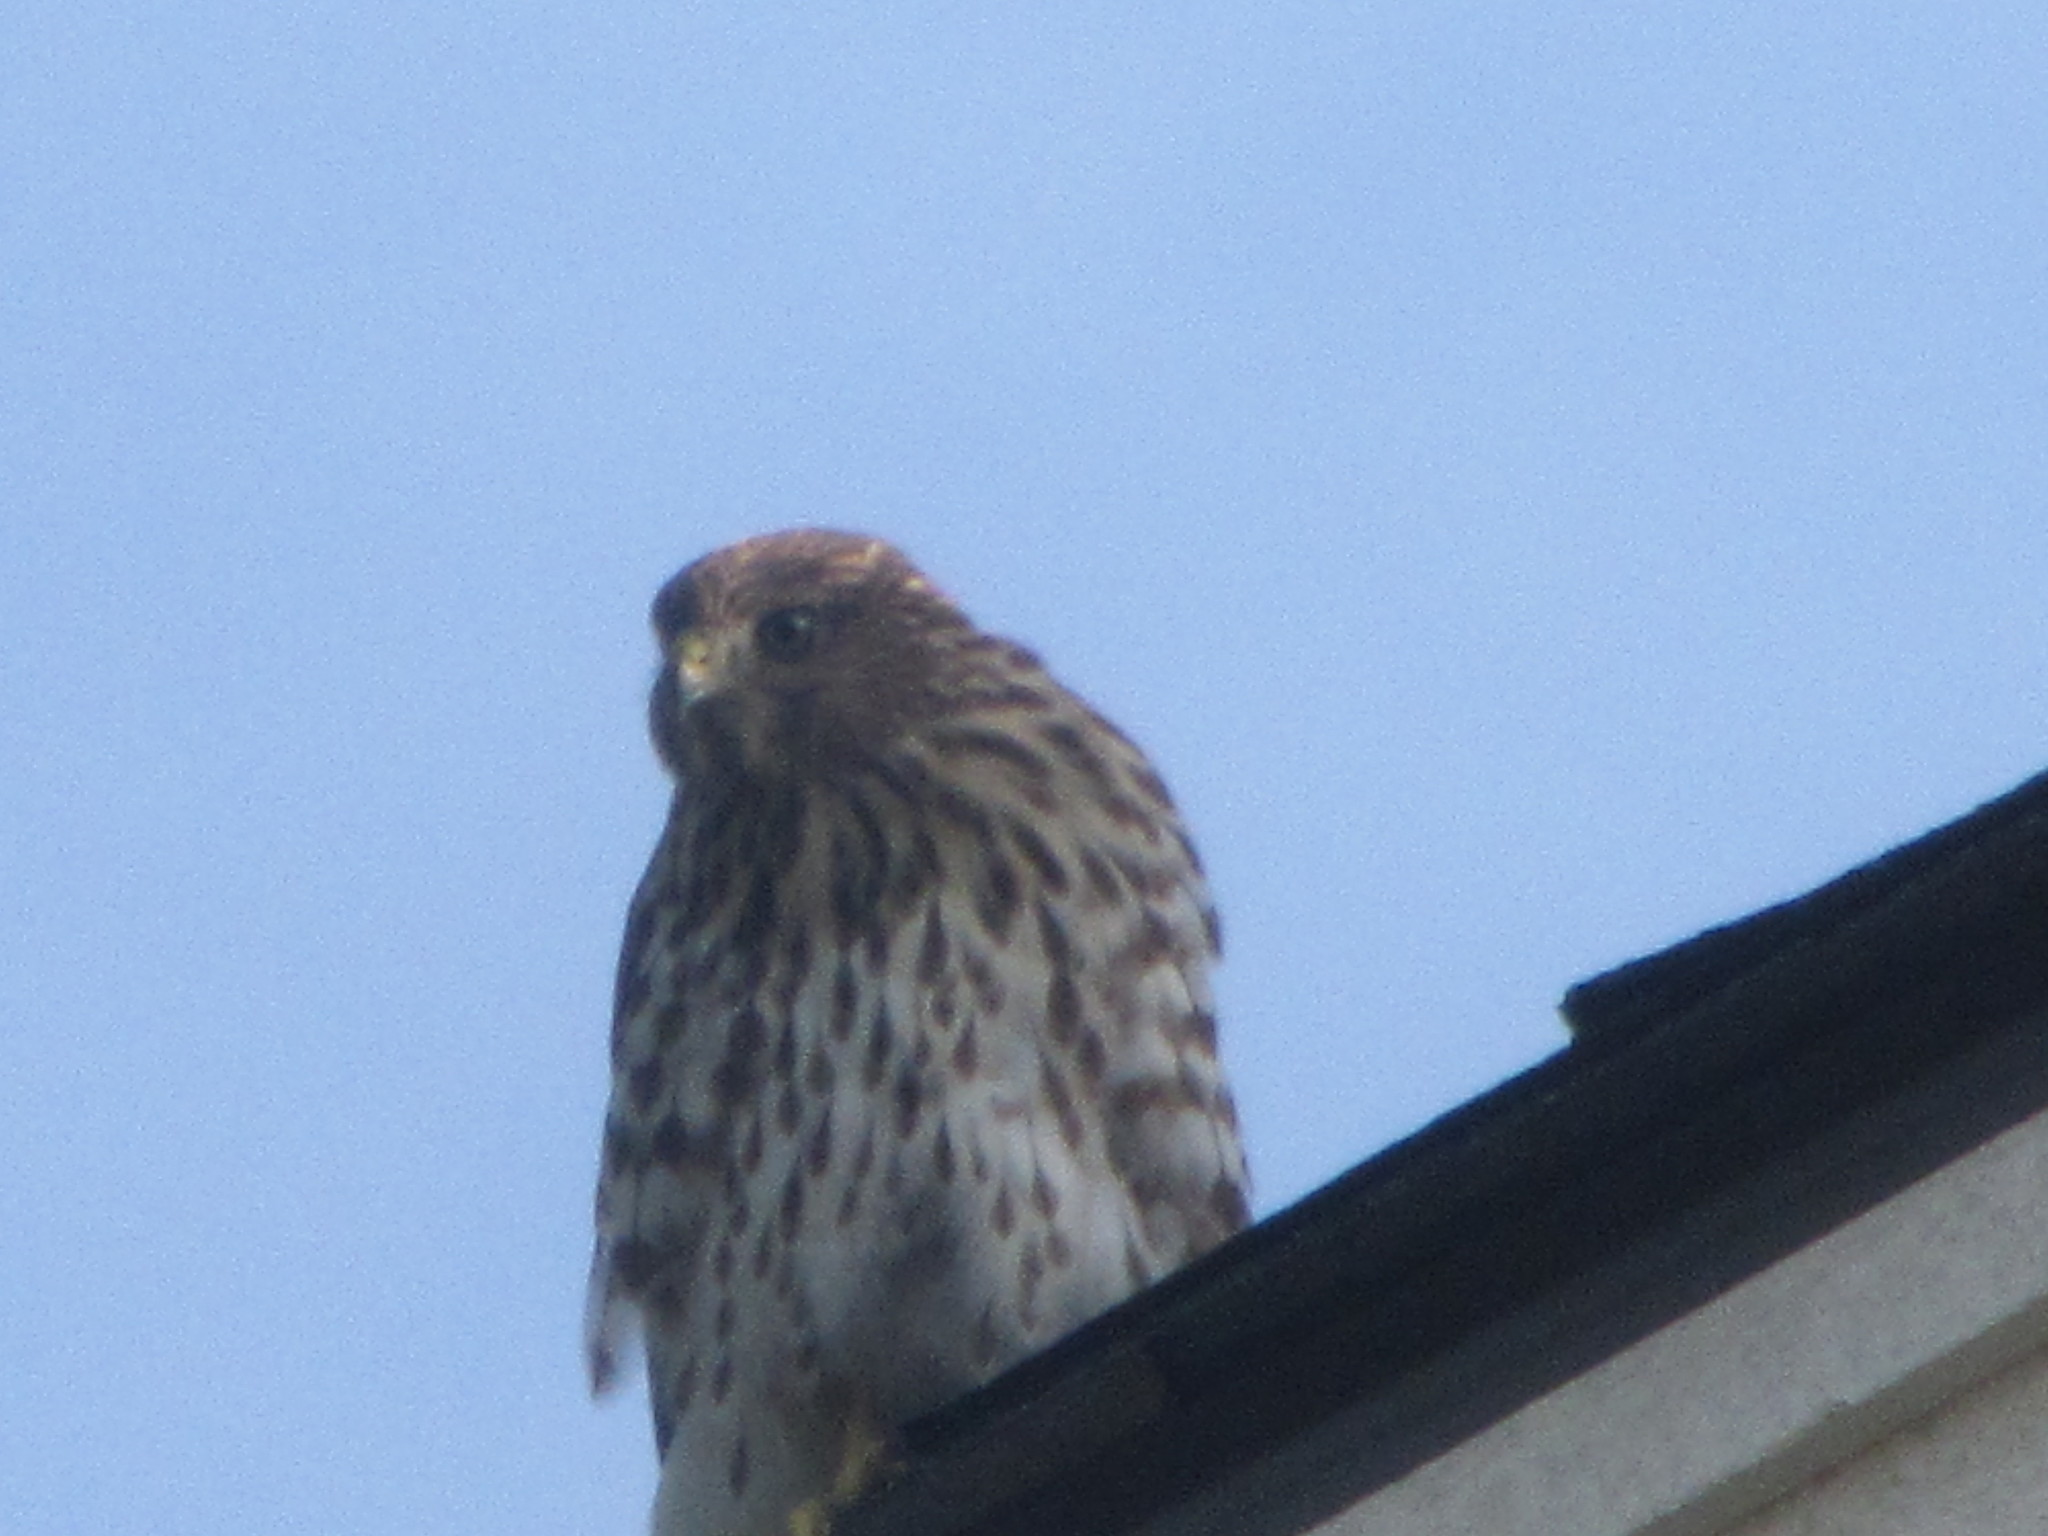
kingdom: Animalia
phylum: Chordata
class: Aves
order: Accipitriformes
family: Accipitridae
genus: Accipiter
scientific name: Accipiter cooperii
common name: Cooper's hawk
